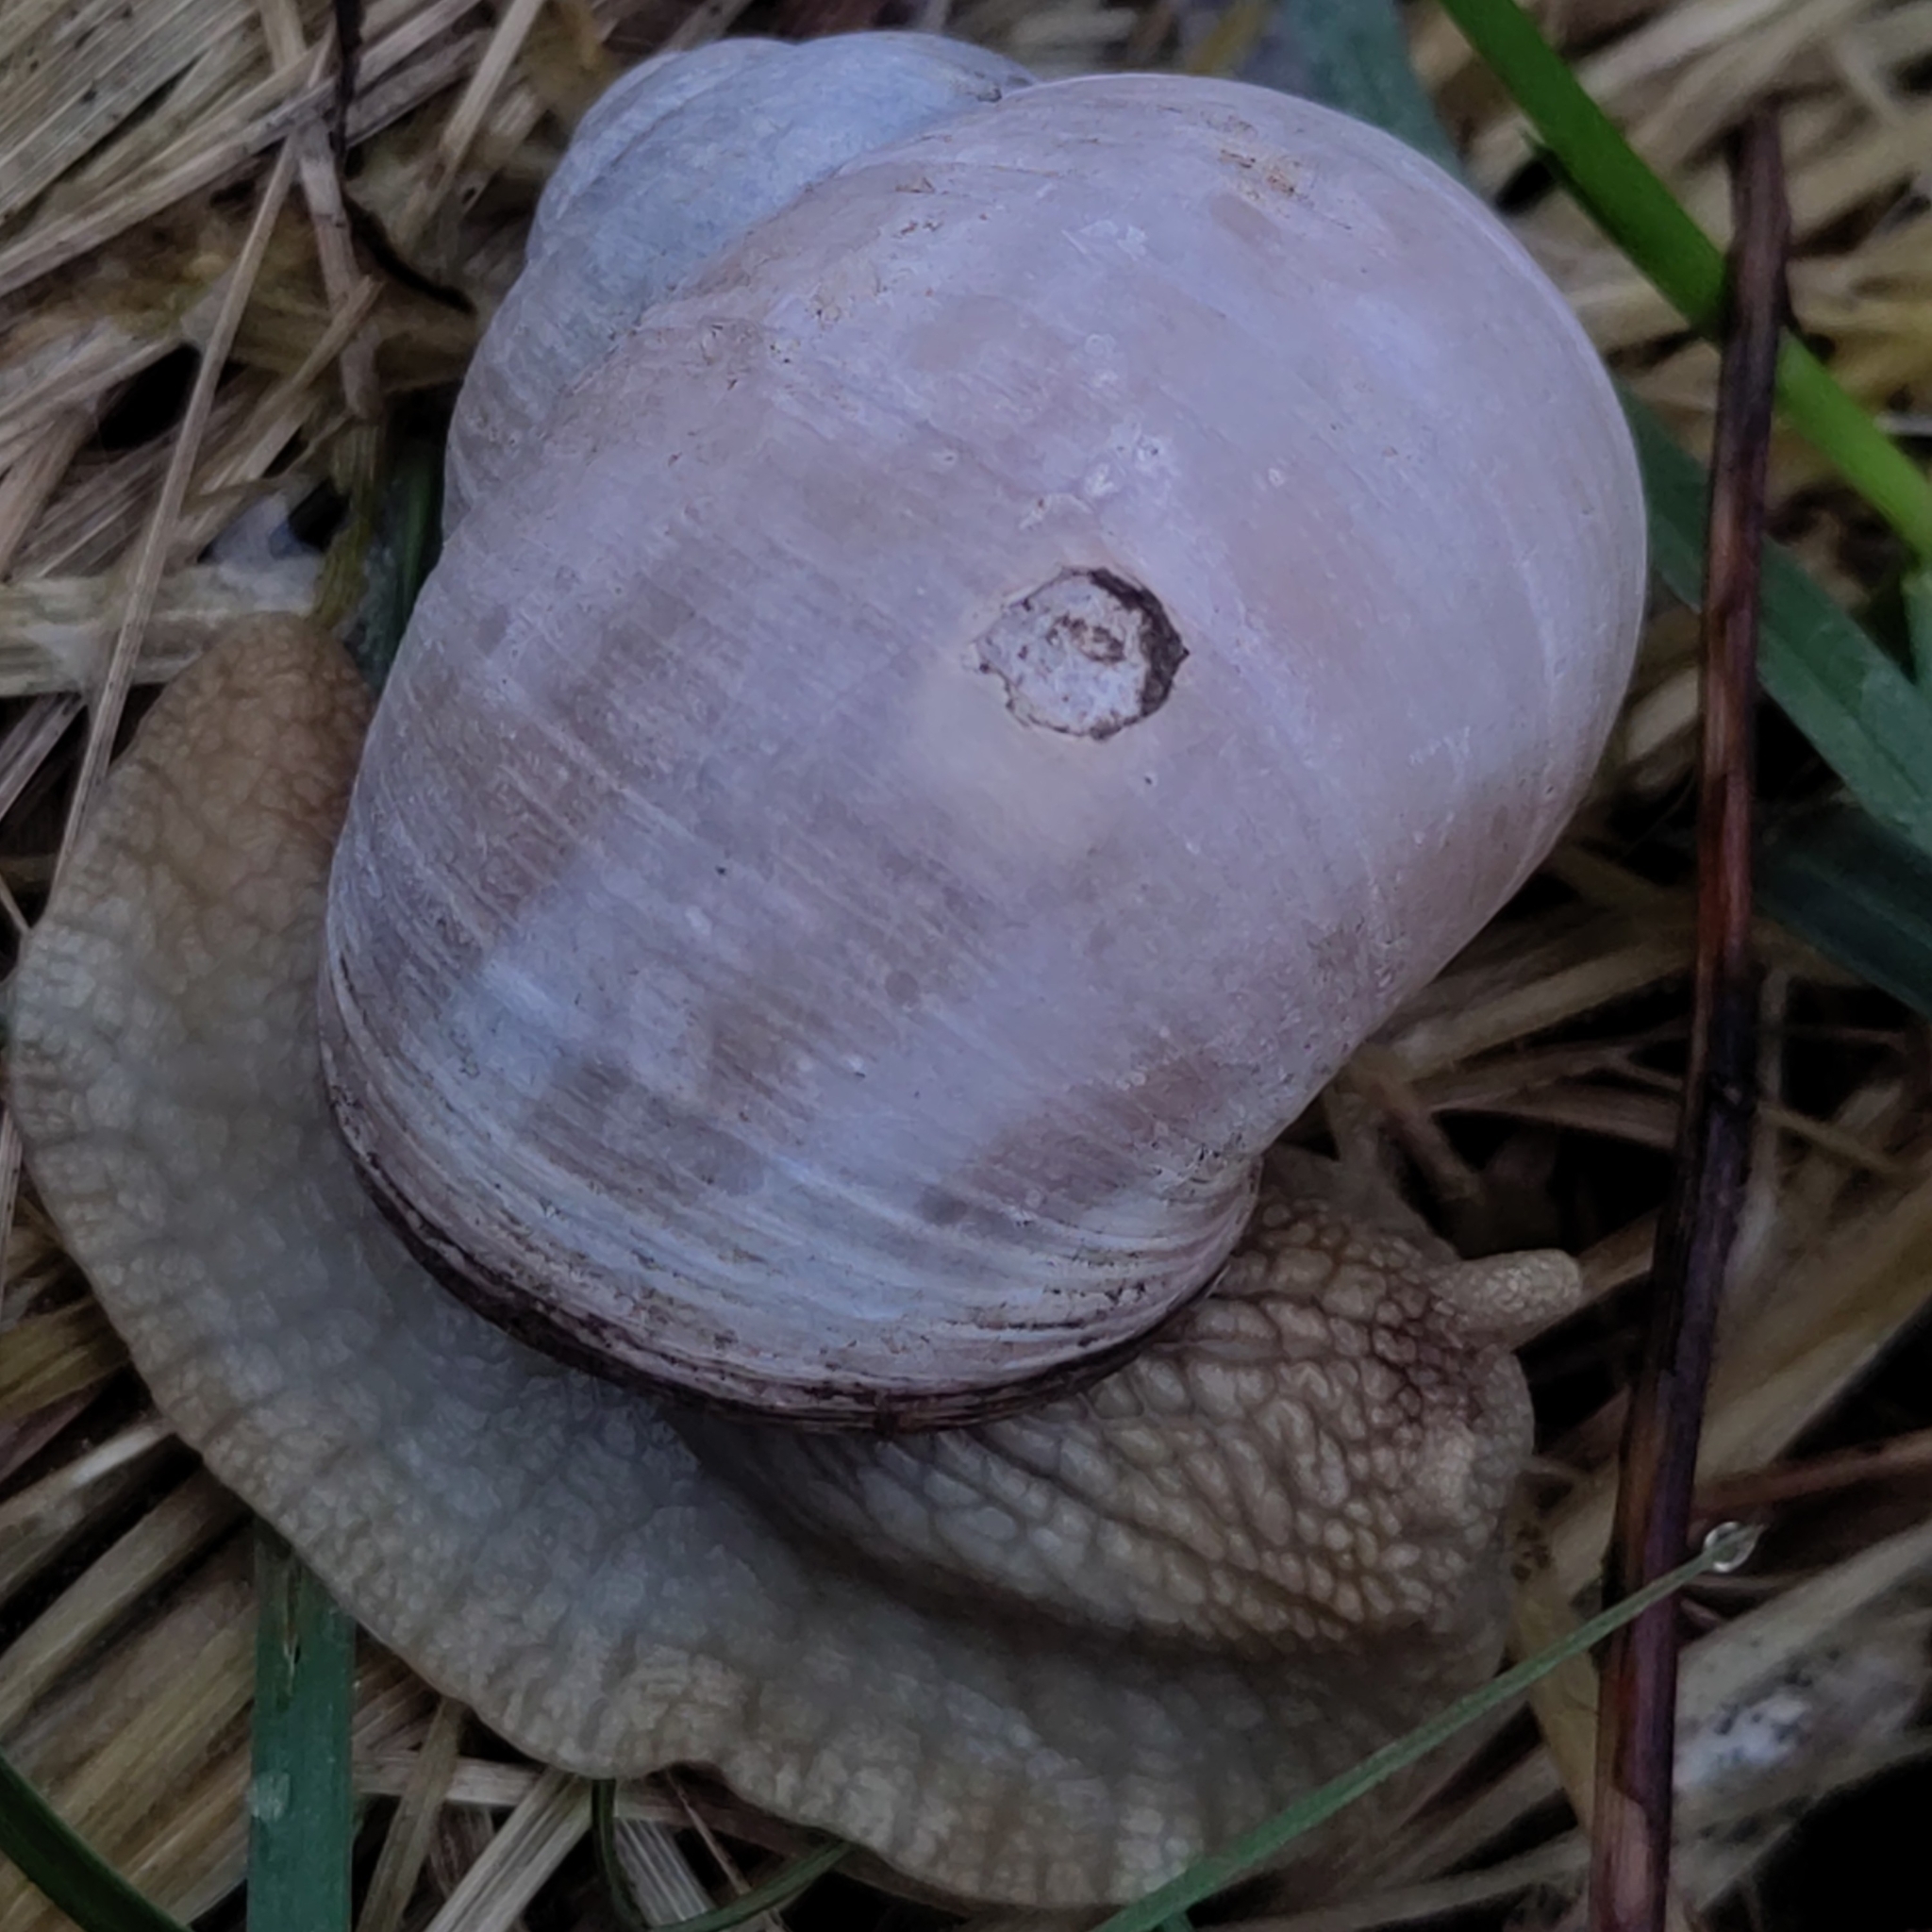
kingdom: Animalia
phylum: Mollusca
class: Gastropoda
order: Stylommatophora
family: Helicidae
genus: Helix
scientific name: Helix pomatia
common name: Roman snail
